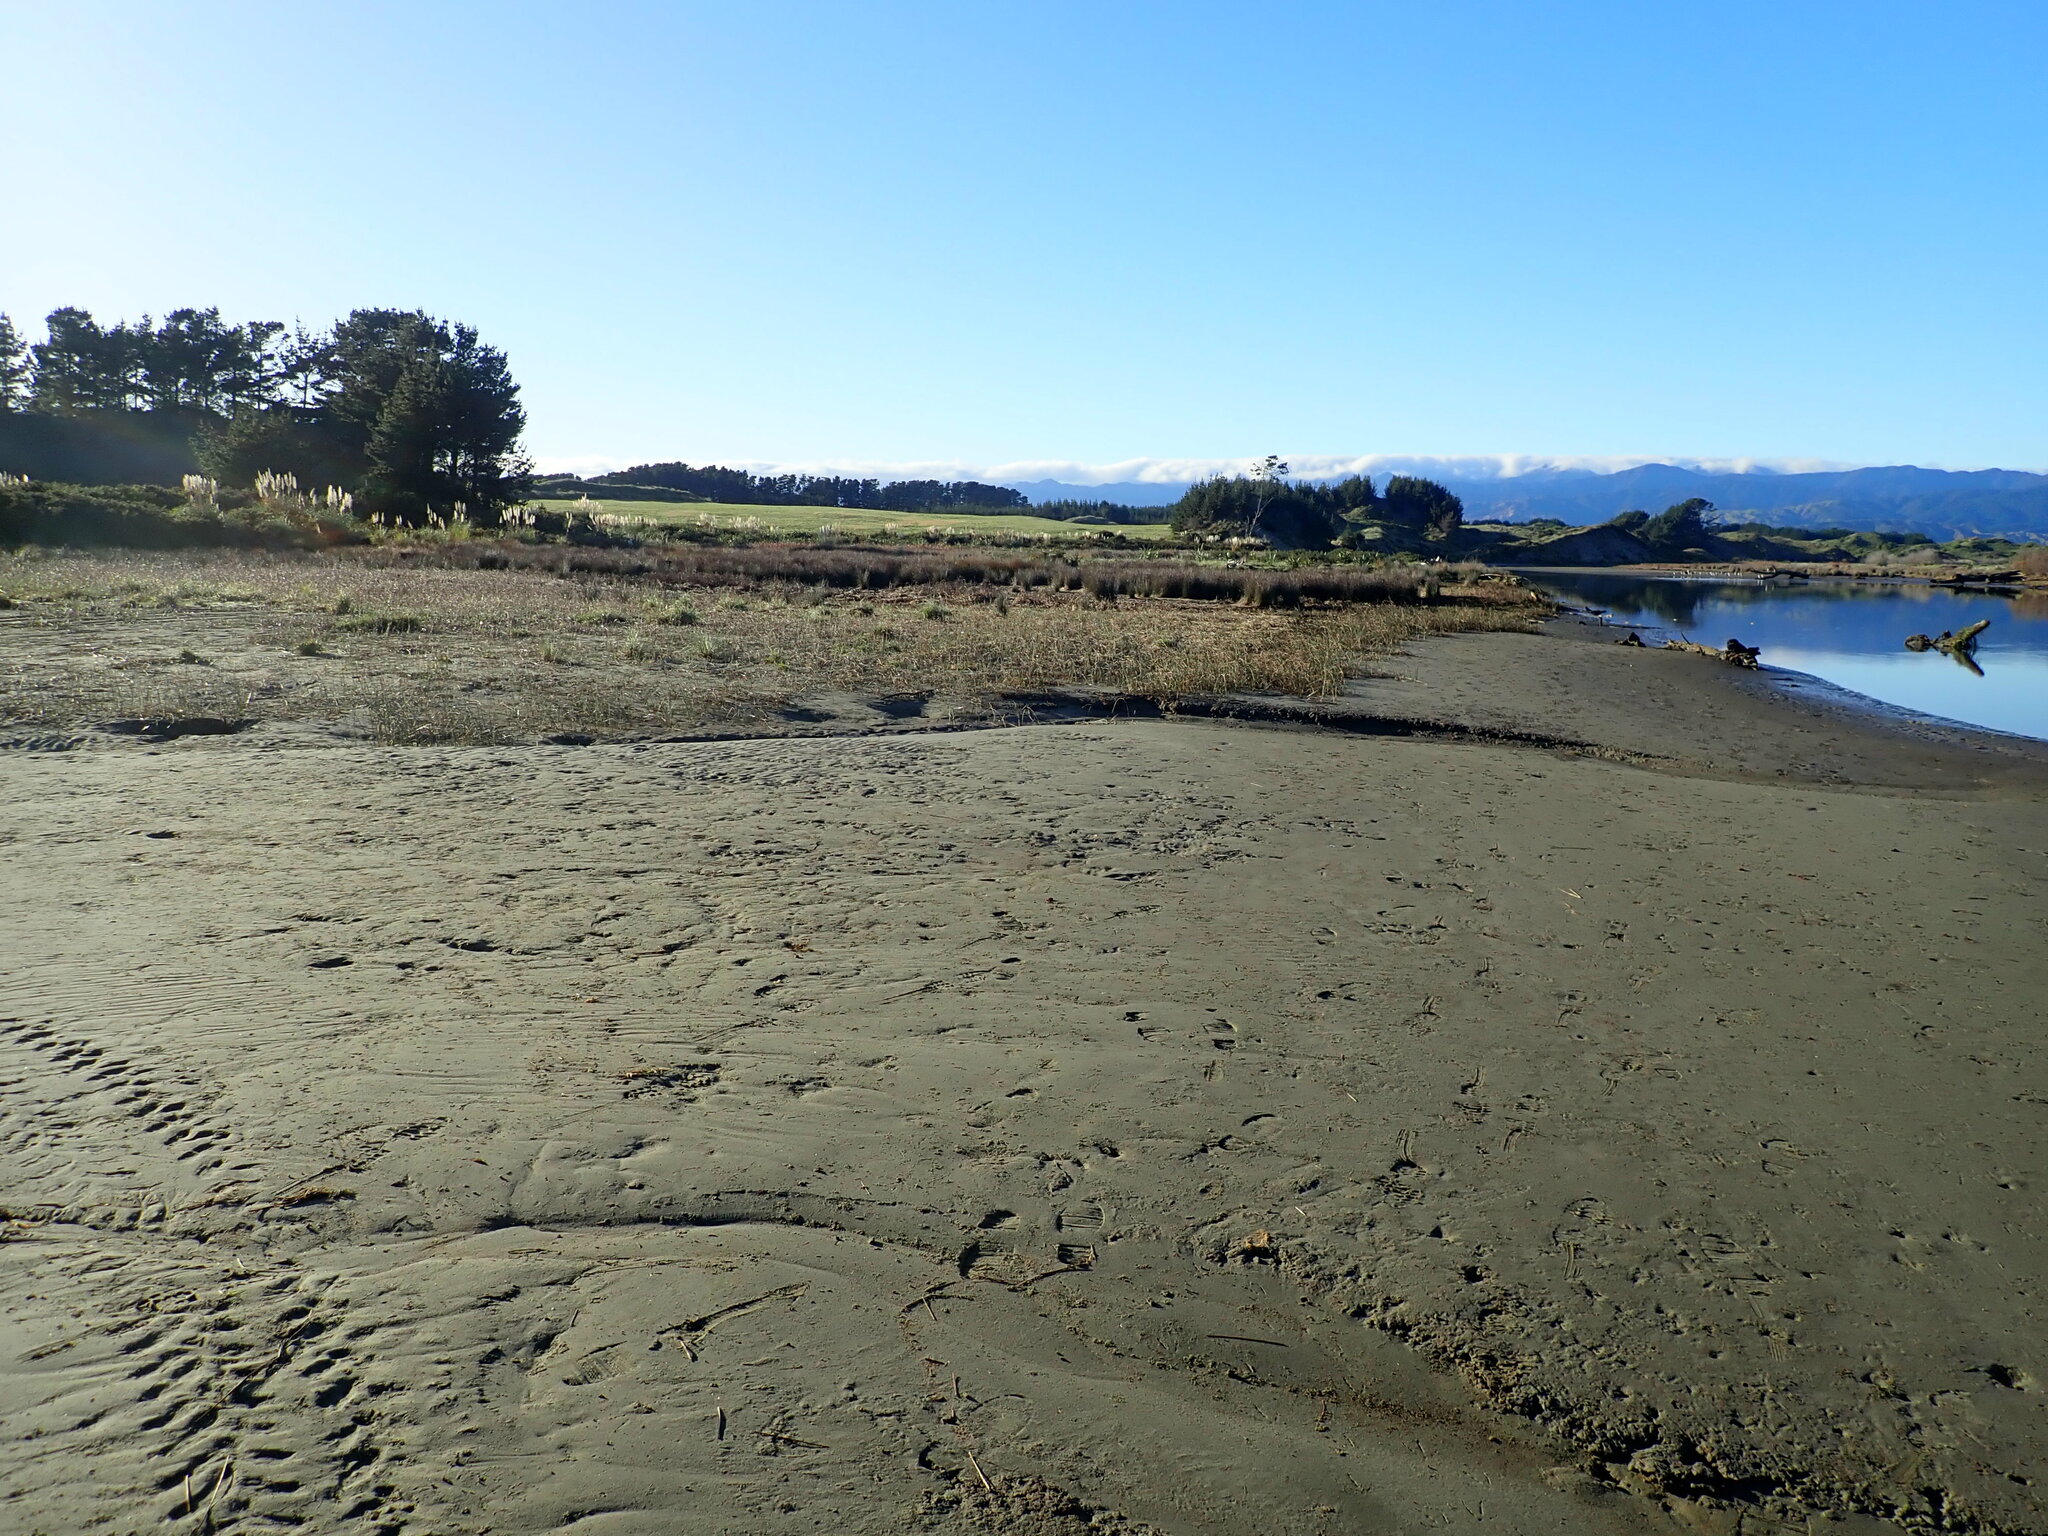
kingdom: Plantae
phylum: Tracheophyta
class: Liliopsida
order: Poales
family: Juncaceae
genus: Juncus
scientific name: Juncus kraussii
